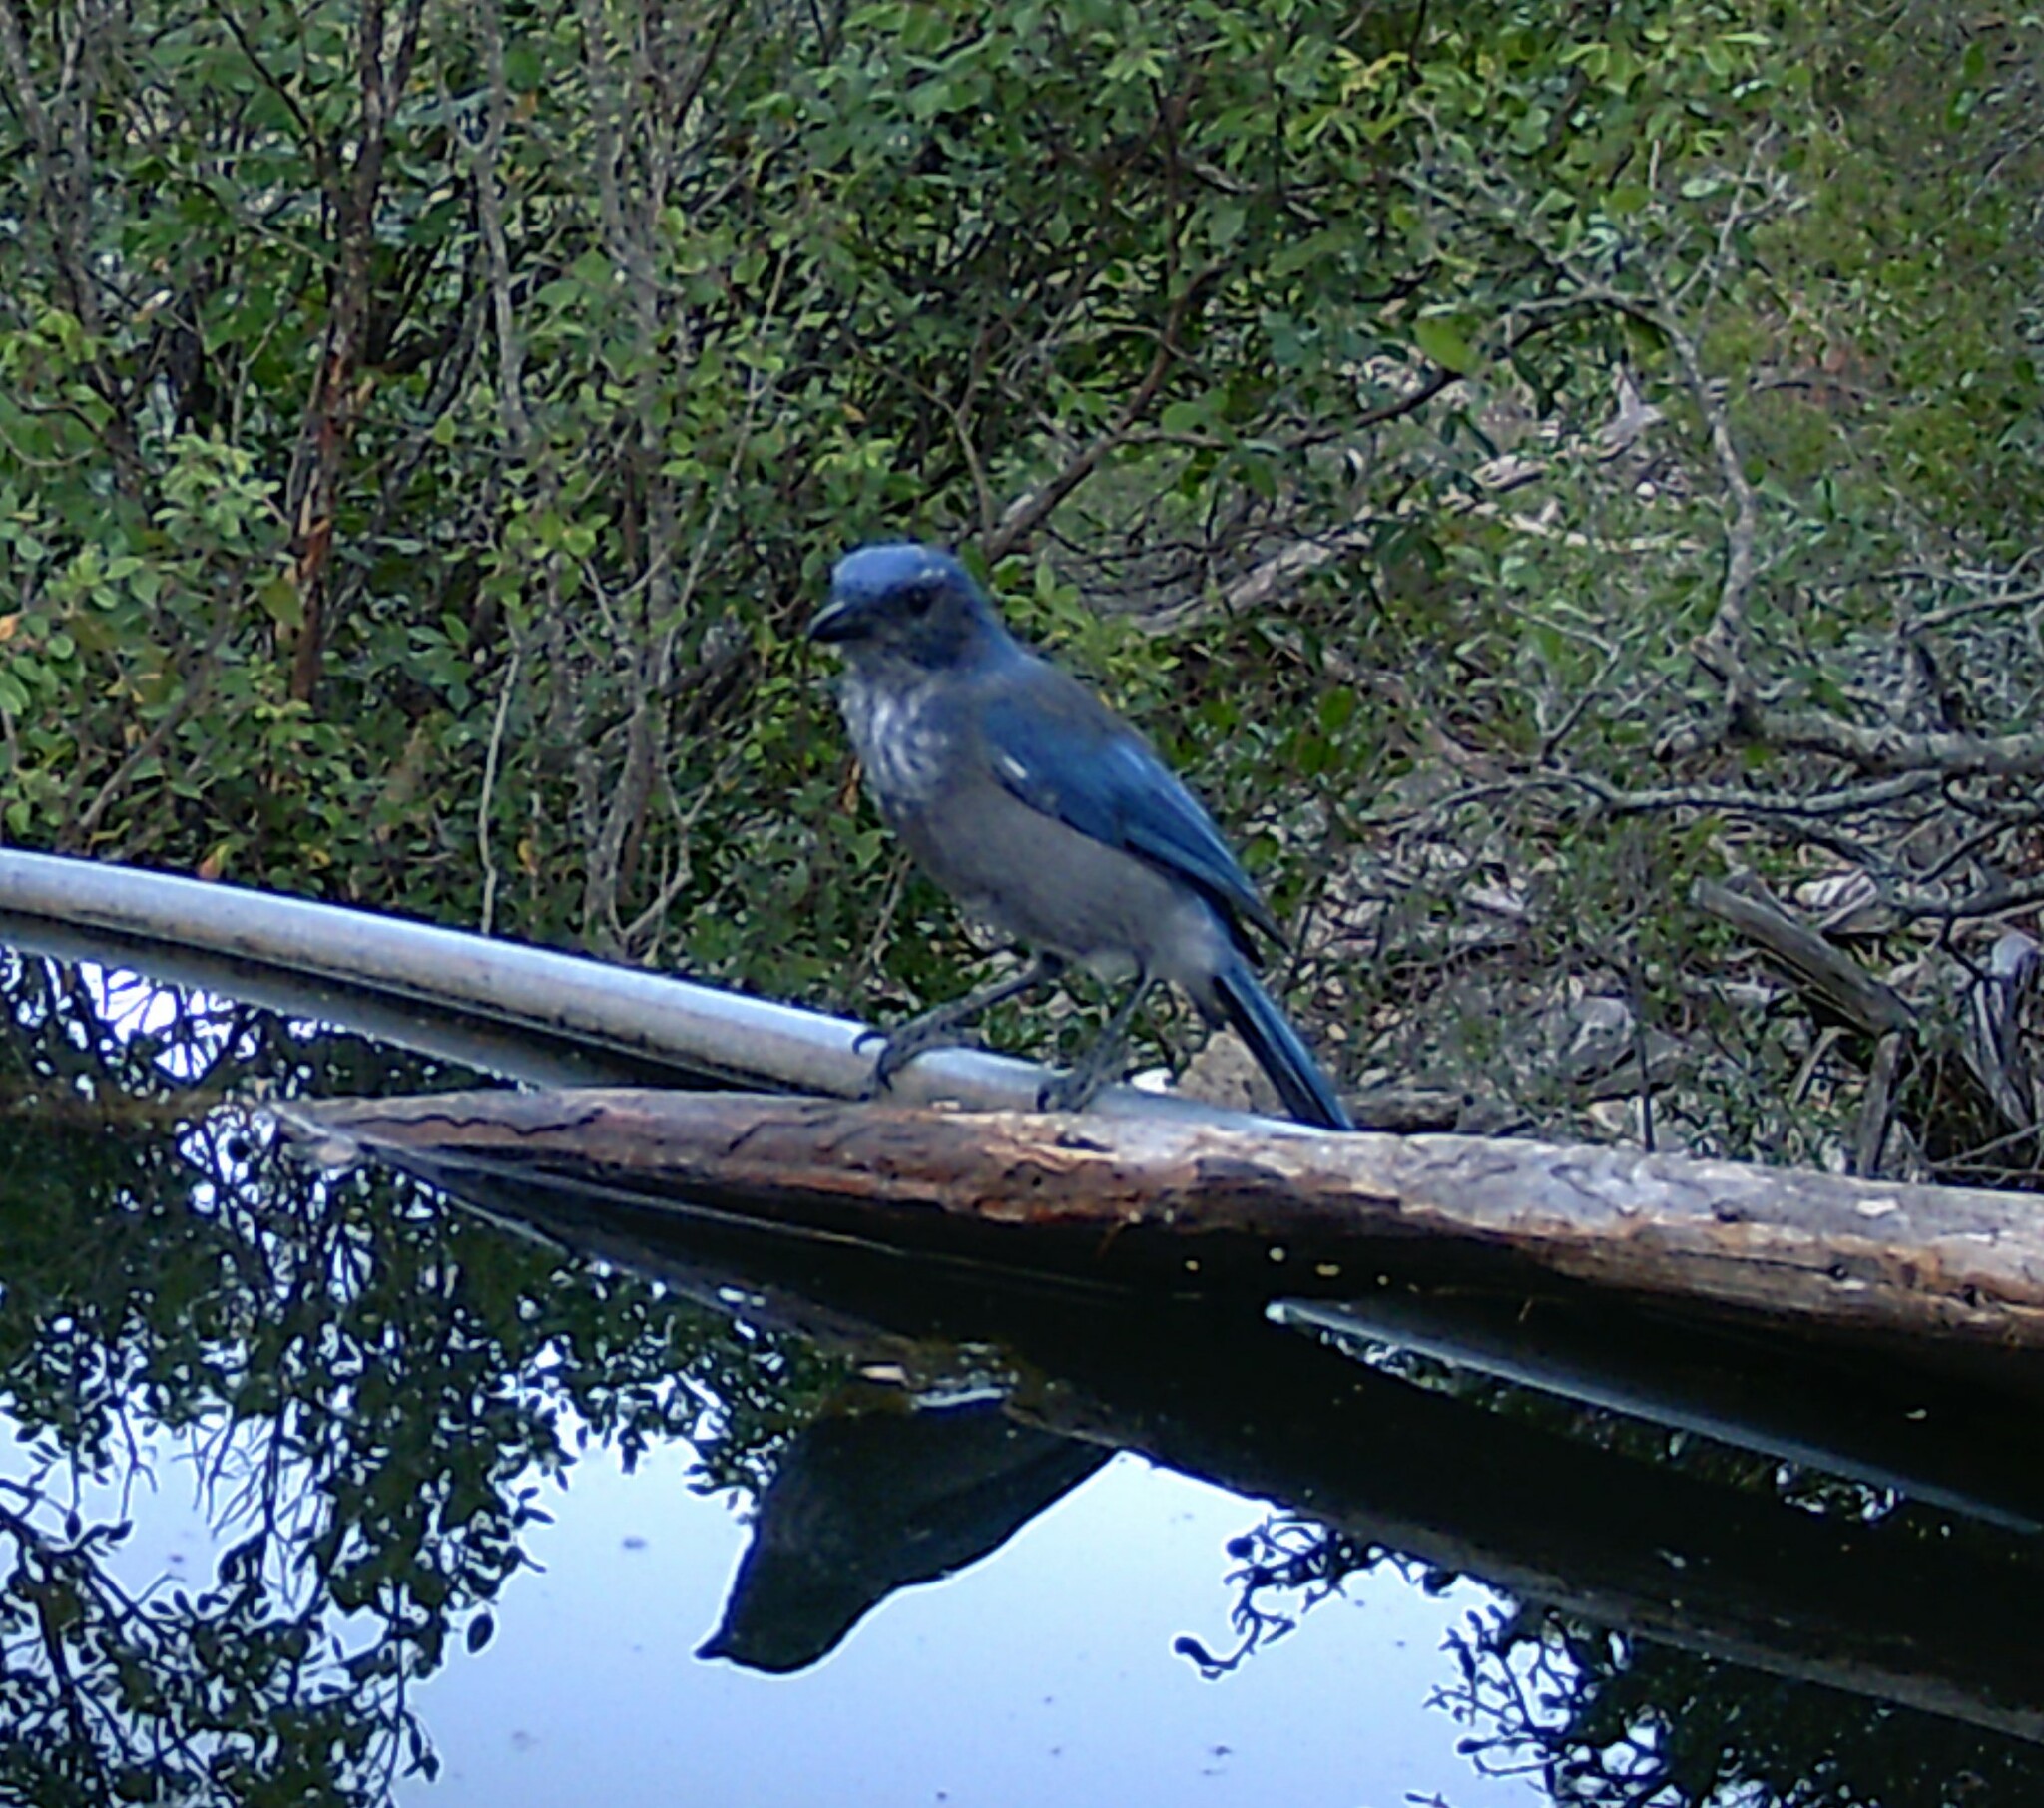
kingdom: Animalia
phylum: Chordata
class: Aves
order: Passeriformes
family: Corvidae
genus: Aphelocoma
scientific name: Aphelocoma woodhouseii
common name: Woodhouse's scrub-jay
